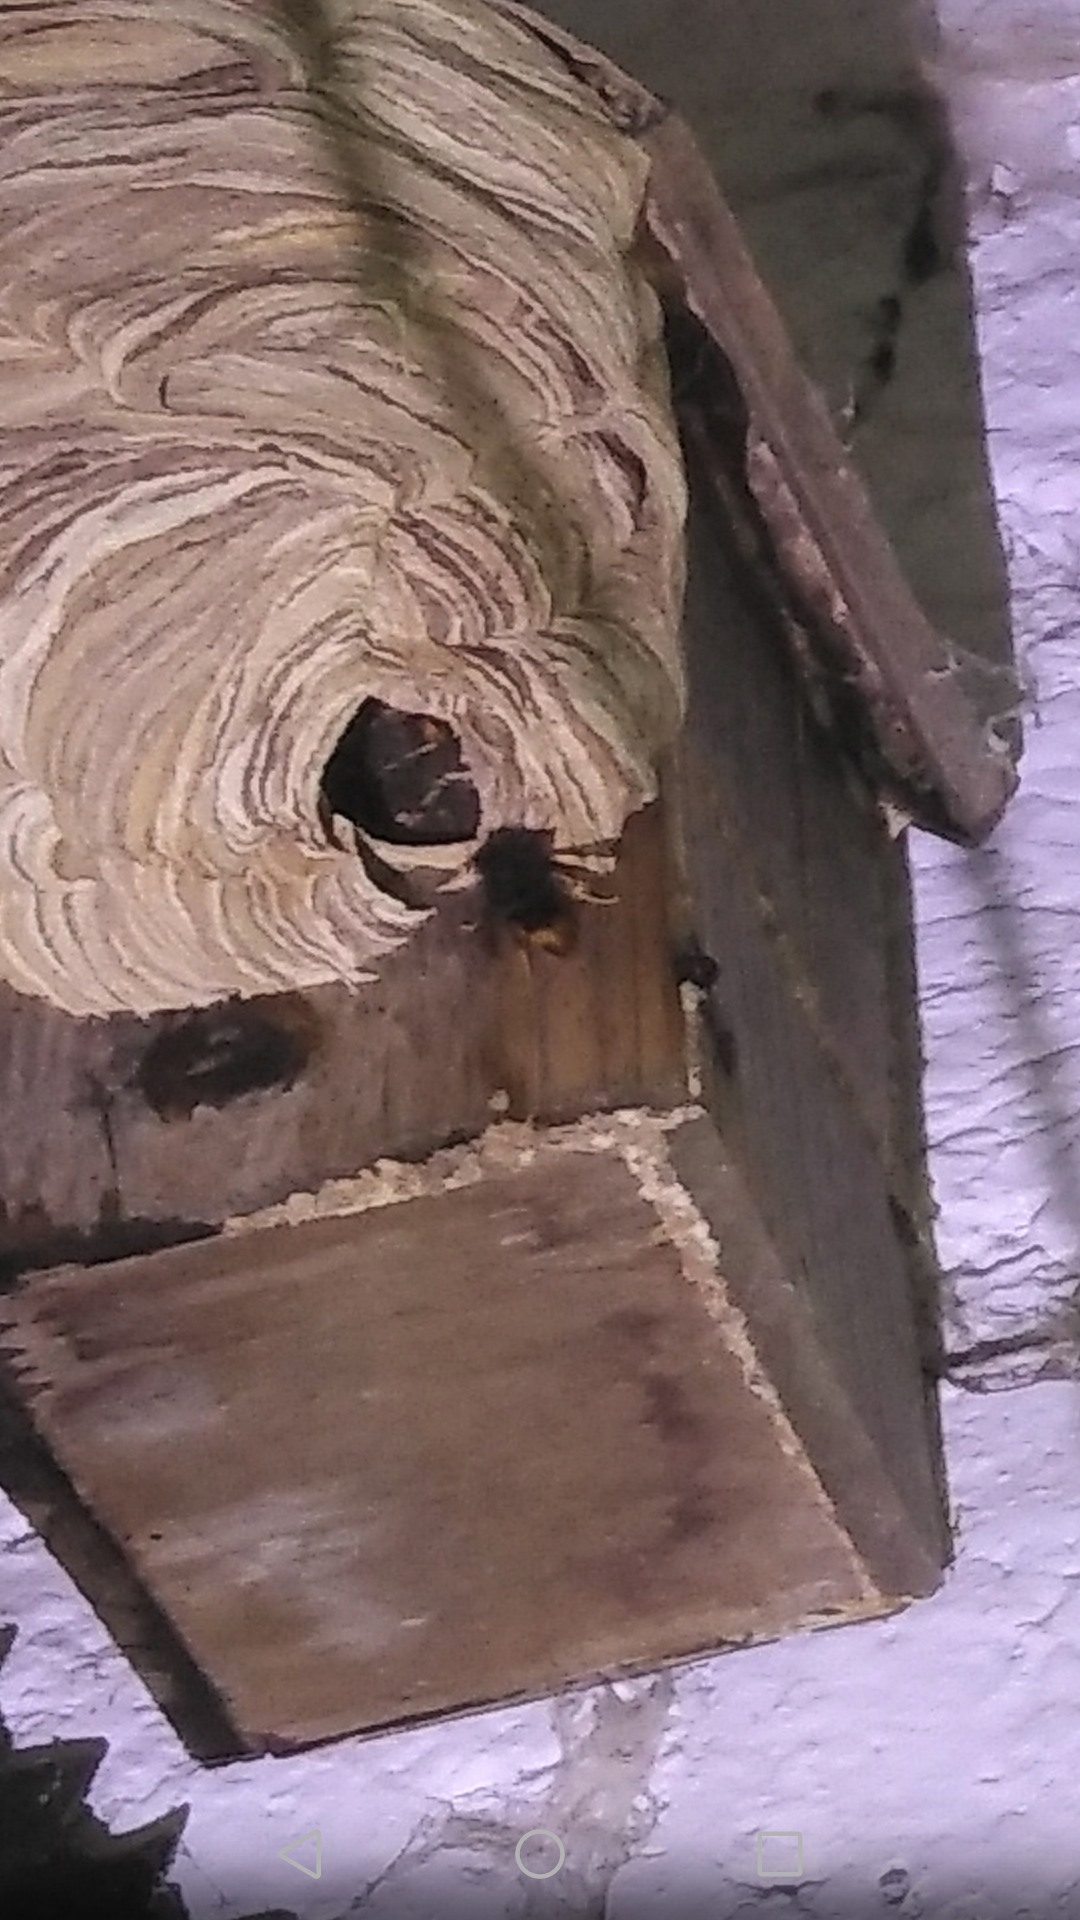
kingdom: Animalia
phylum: Arthropoda
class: Insecta
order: Hymenoptera
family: Vespidae
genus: Vespa
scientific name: Vespa velutina
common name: Asian hornet
